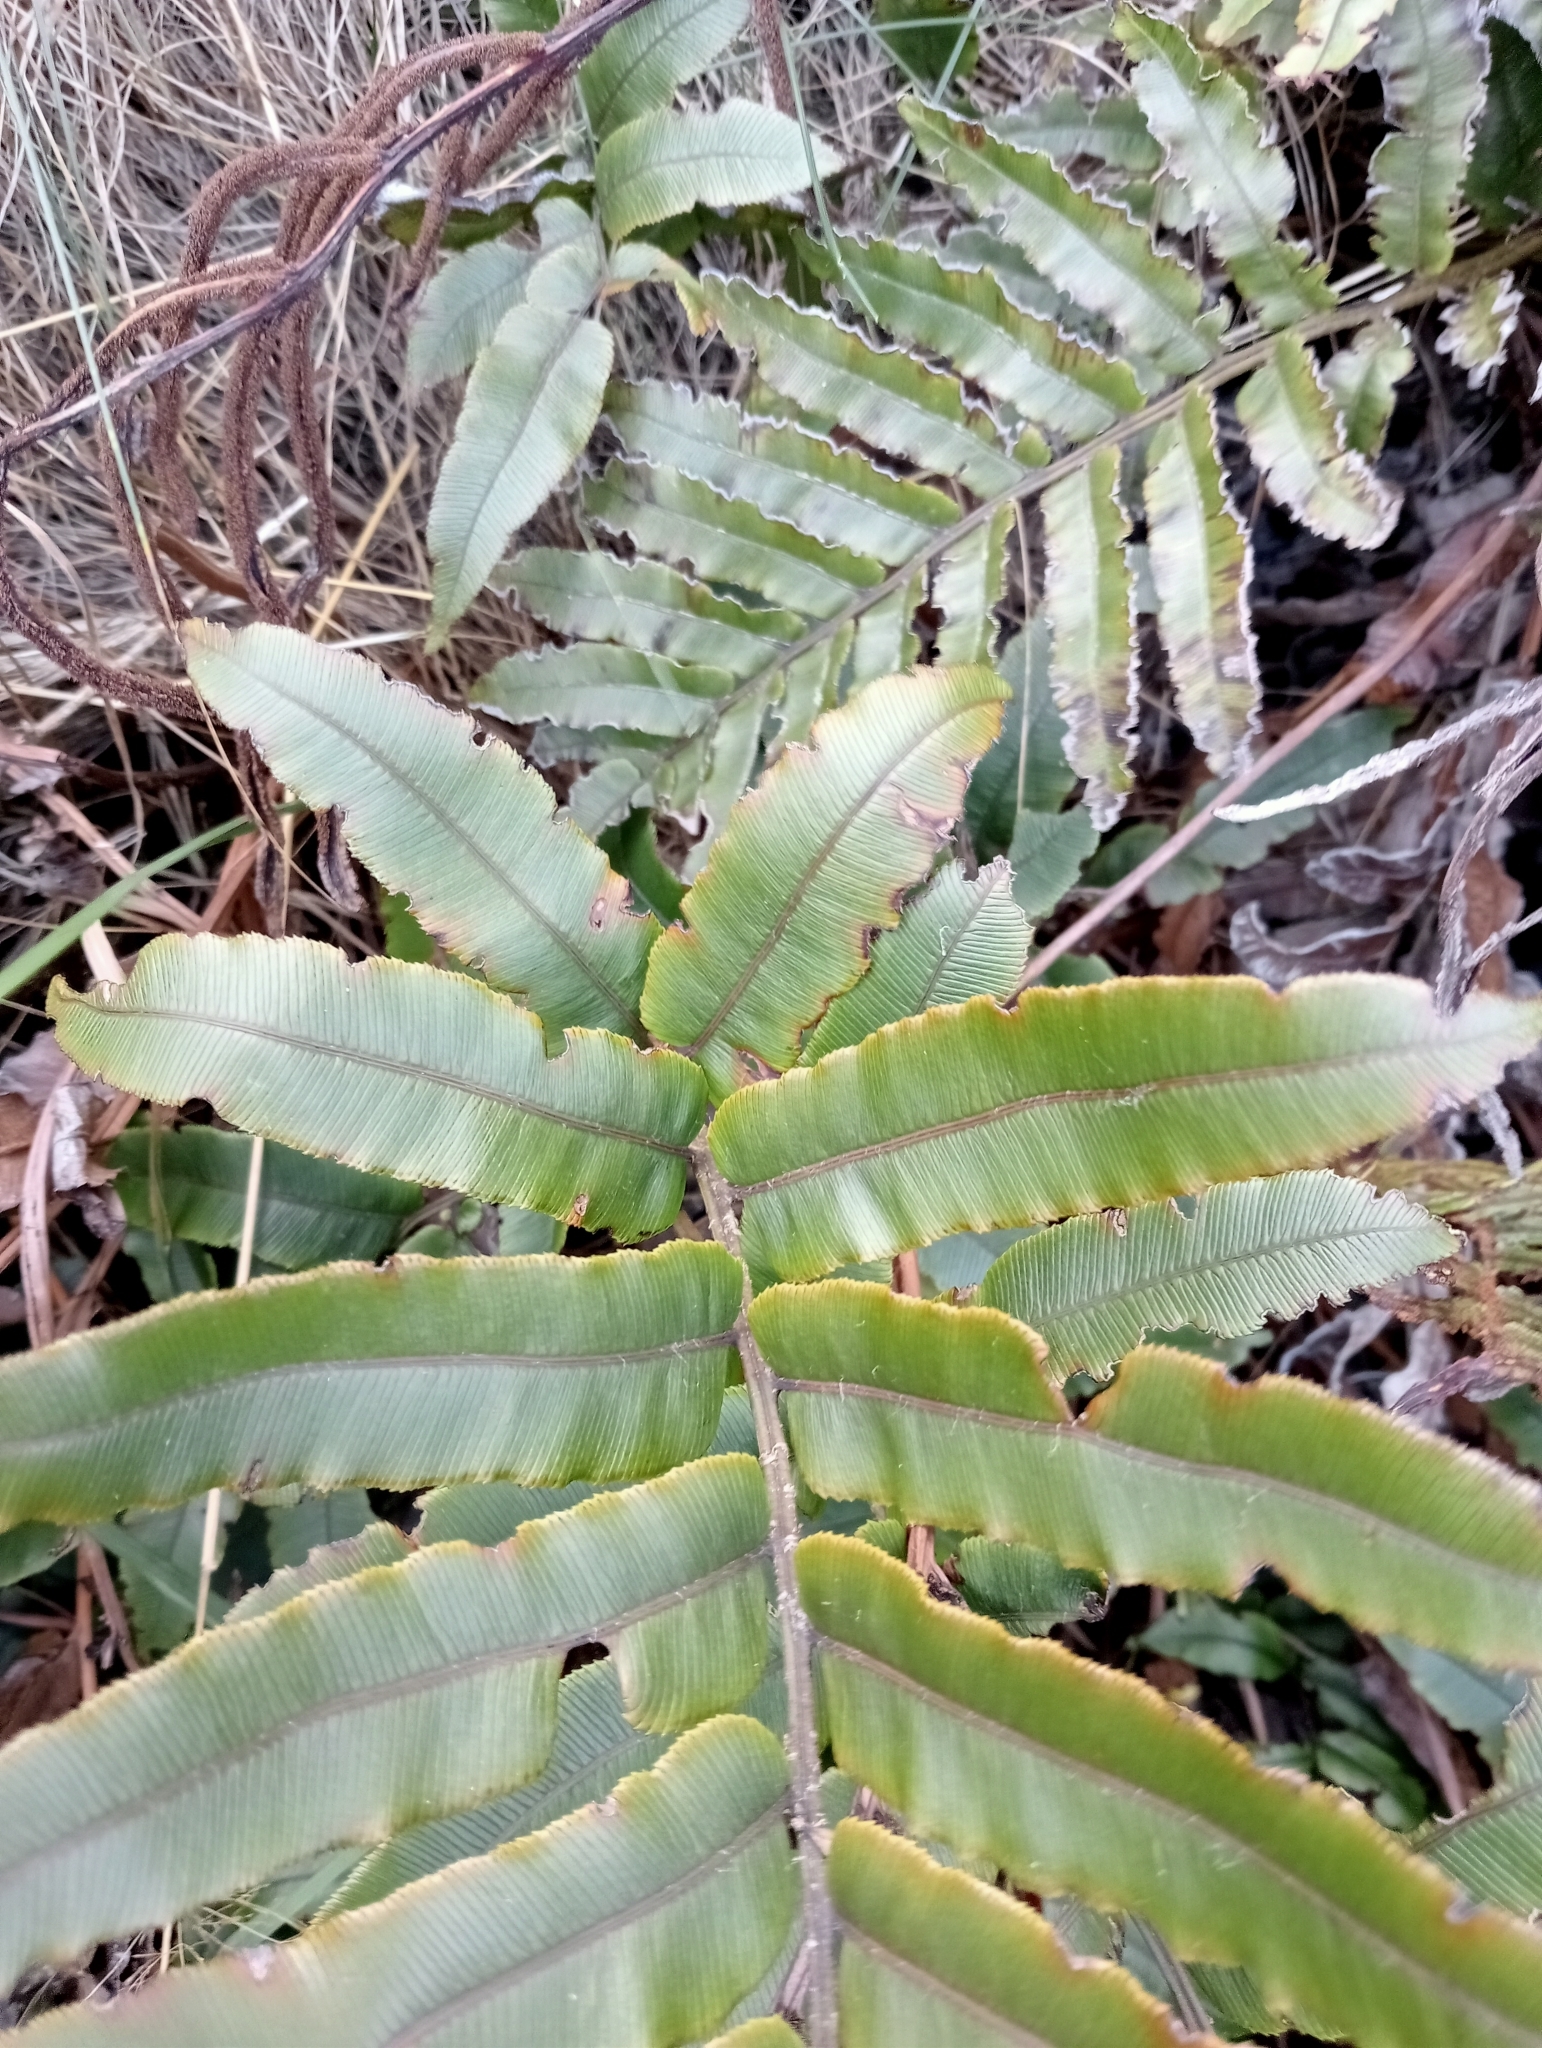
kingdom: Plantae
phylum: Tracheophyta
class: Polypodiopsida
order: Polypodiales
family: Blechnaceae
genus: Parablechnum
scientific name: Parablechnum procerum
